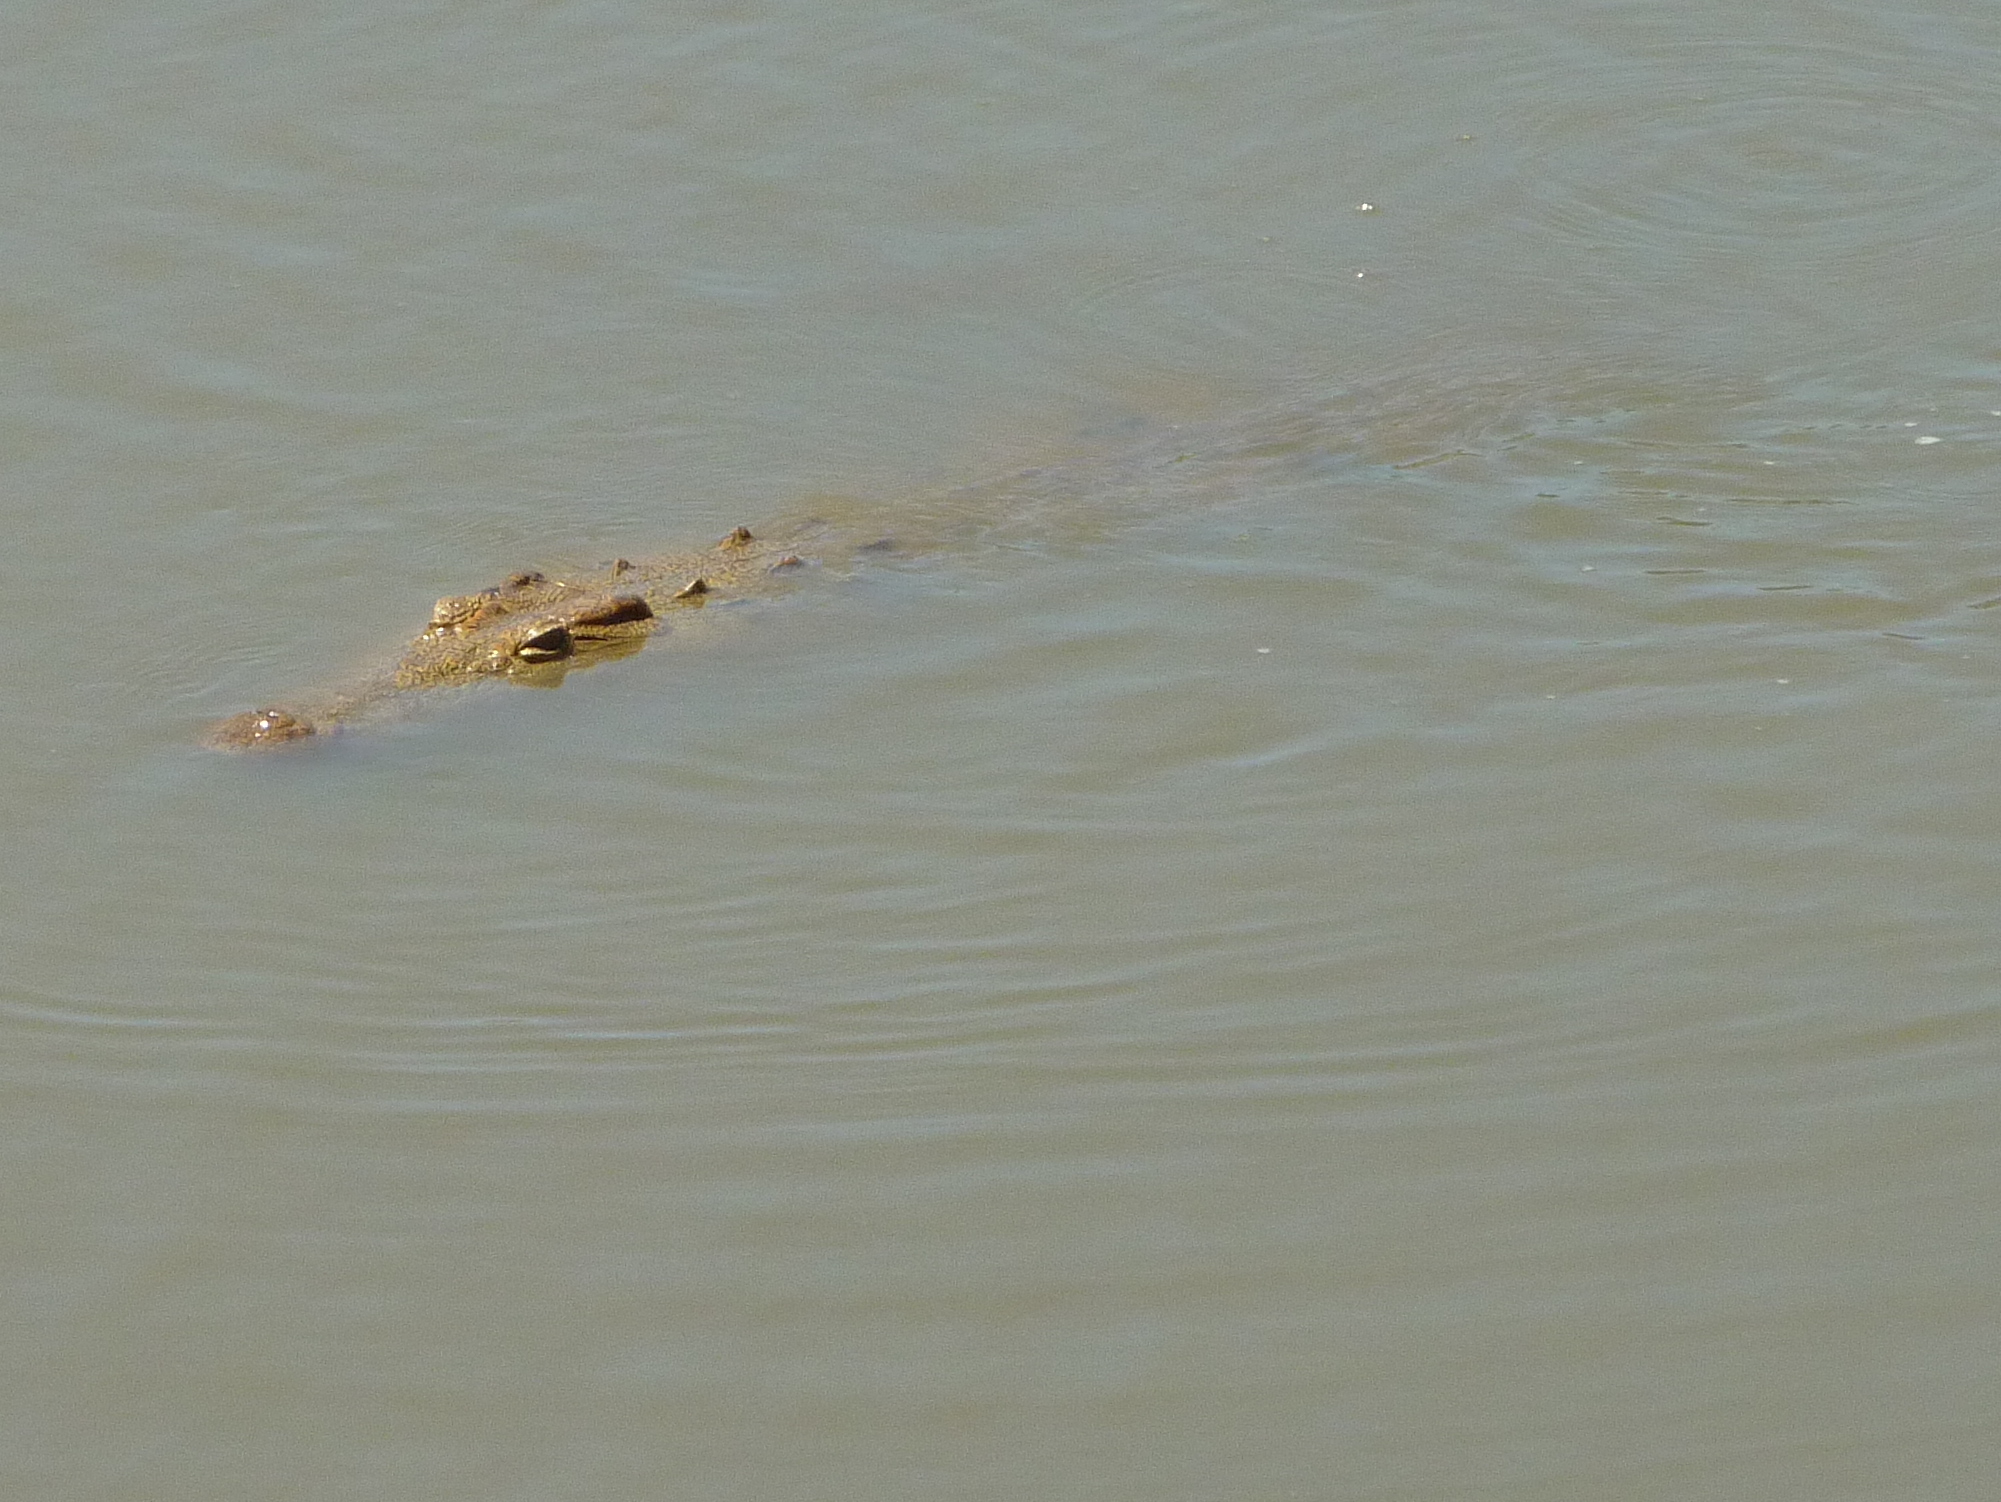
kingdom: Animalia
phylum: Chordata
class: Crocodylia
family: Crocodylidae
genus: Crocodylus
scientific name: Crocodylus niloticus
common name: Nile crocodile
